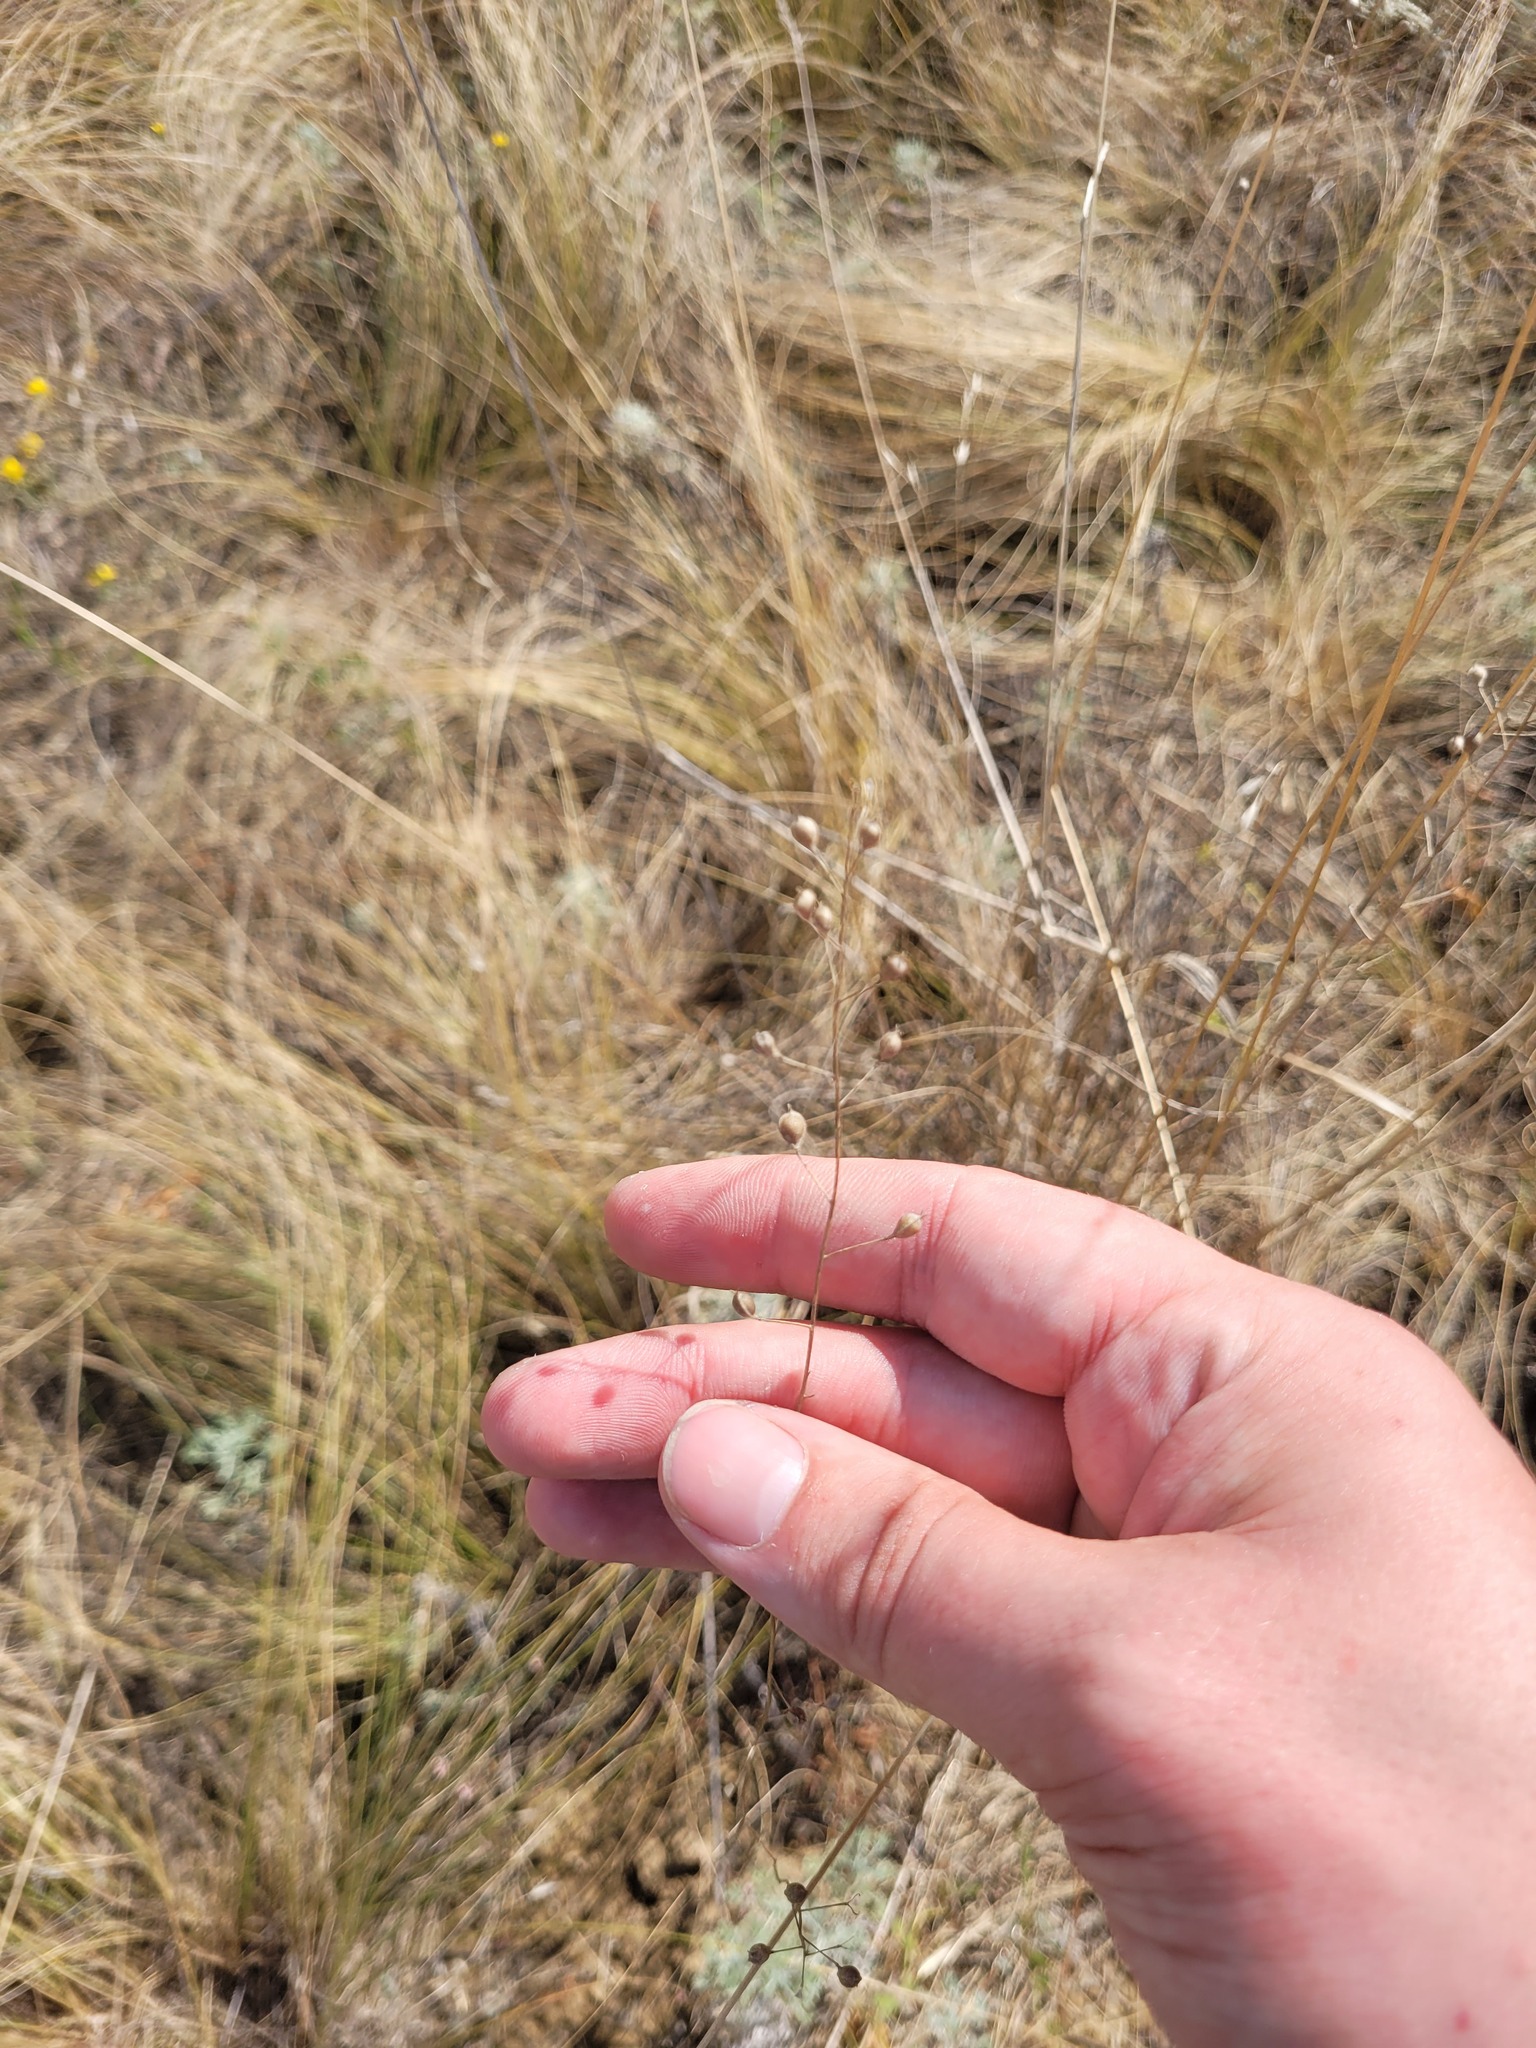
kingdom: Plantae
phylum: Tracheophyta
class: Magnoliopsida
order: Brassicales
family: Brassicaceae
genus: Camelina
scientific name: Camelina microcarpa
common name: Lesser gold-of-pleasure
